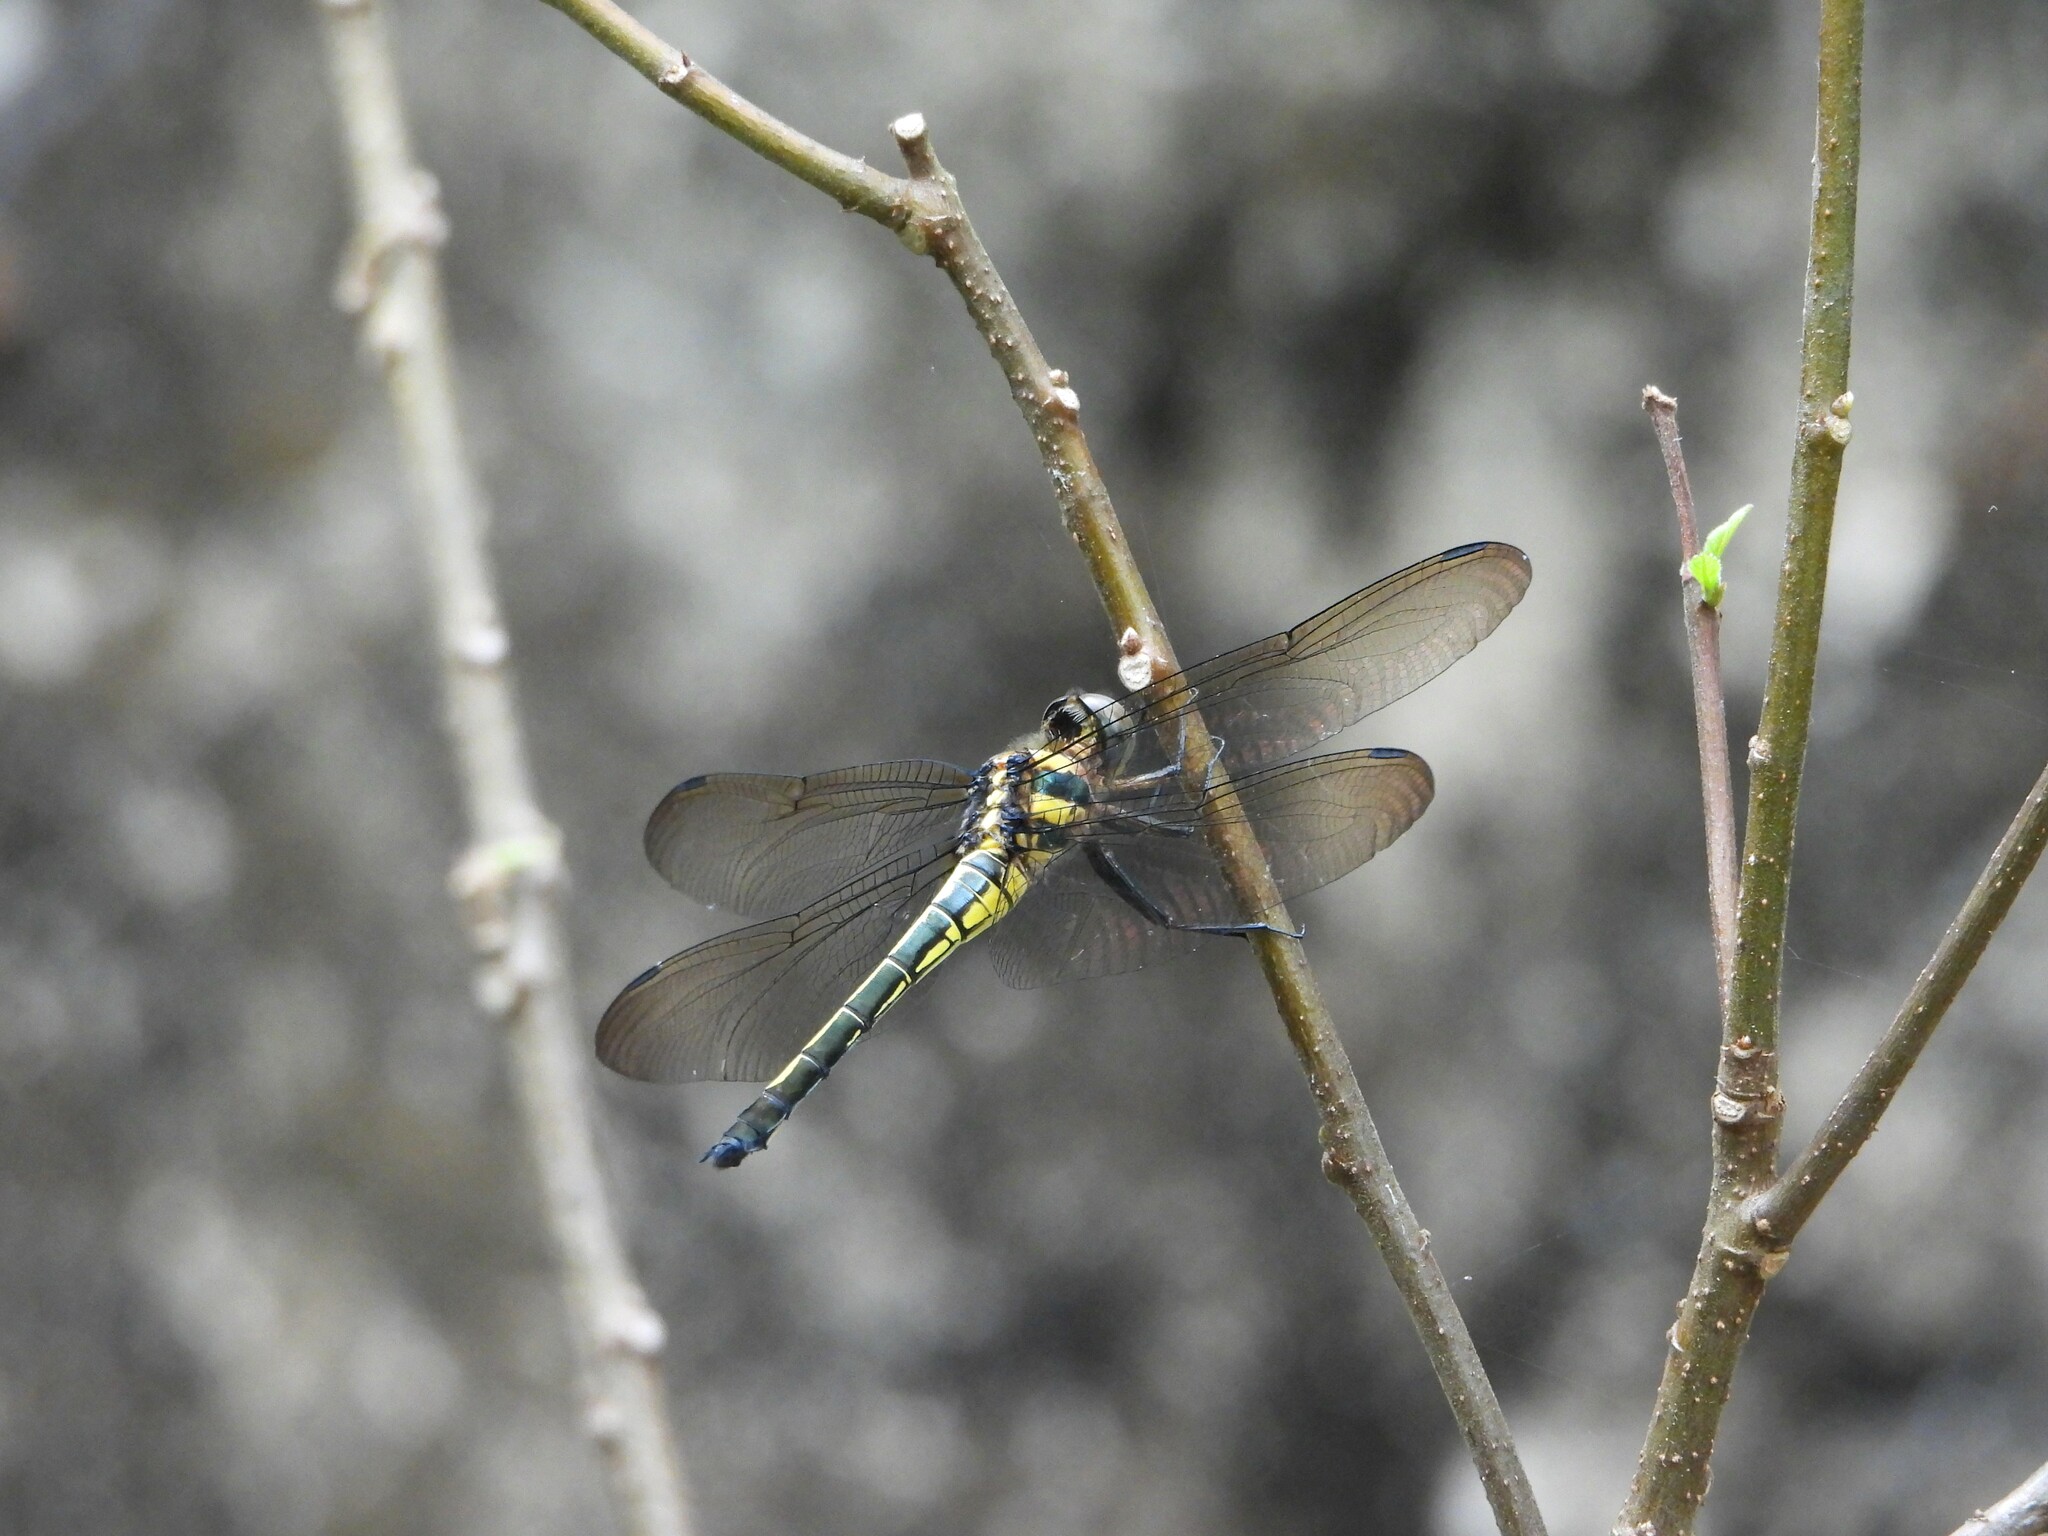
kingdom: Animalia
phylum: Arthropoda
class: Insecta
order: Odonata
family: Libellulidae
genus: Zygonyx
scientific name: Zygonyx iris
